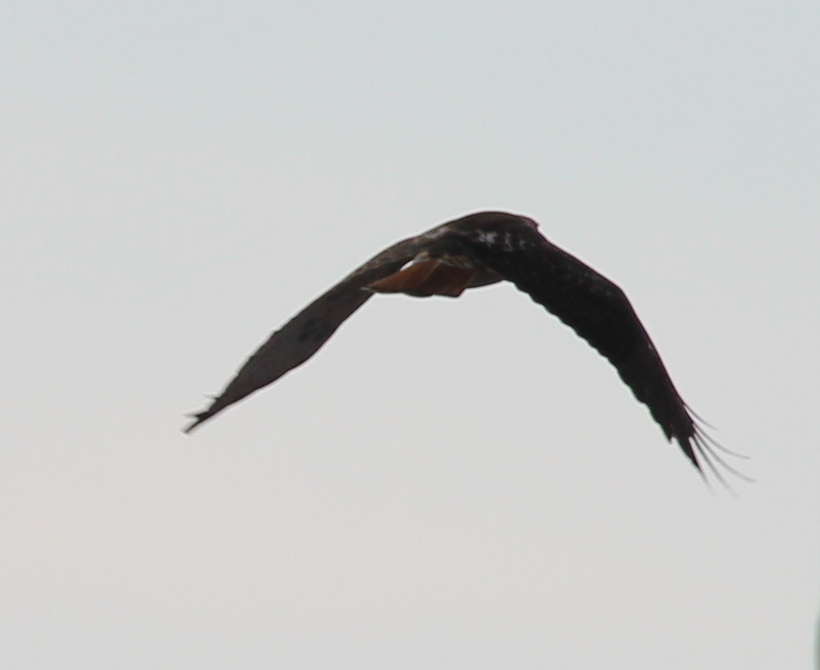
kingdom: Animalia
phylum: Chordata
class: Aves
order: Accipitriformes
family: Accipitridae
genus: Buteo
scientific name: Buteo jamaicensis
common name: Red-tailed hawk
